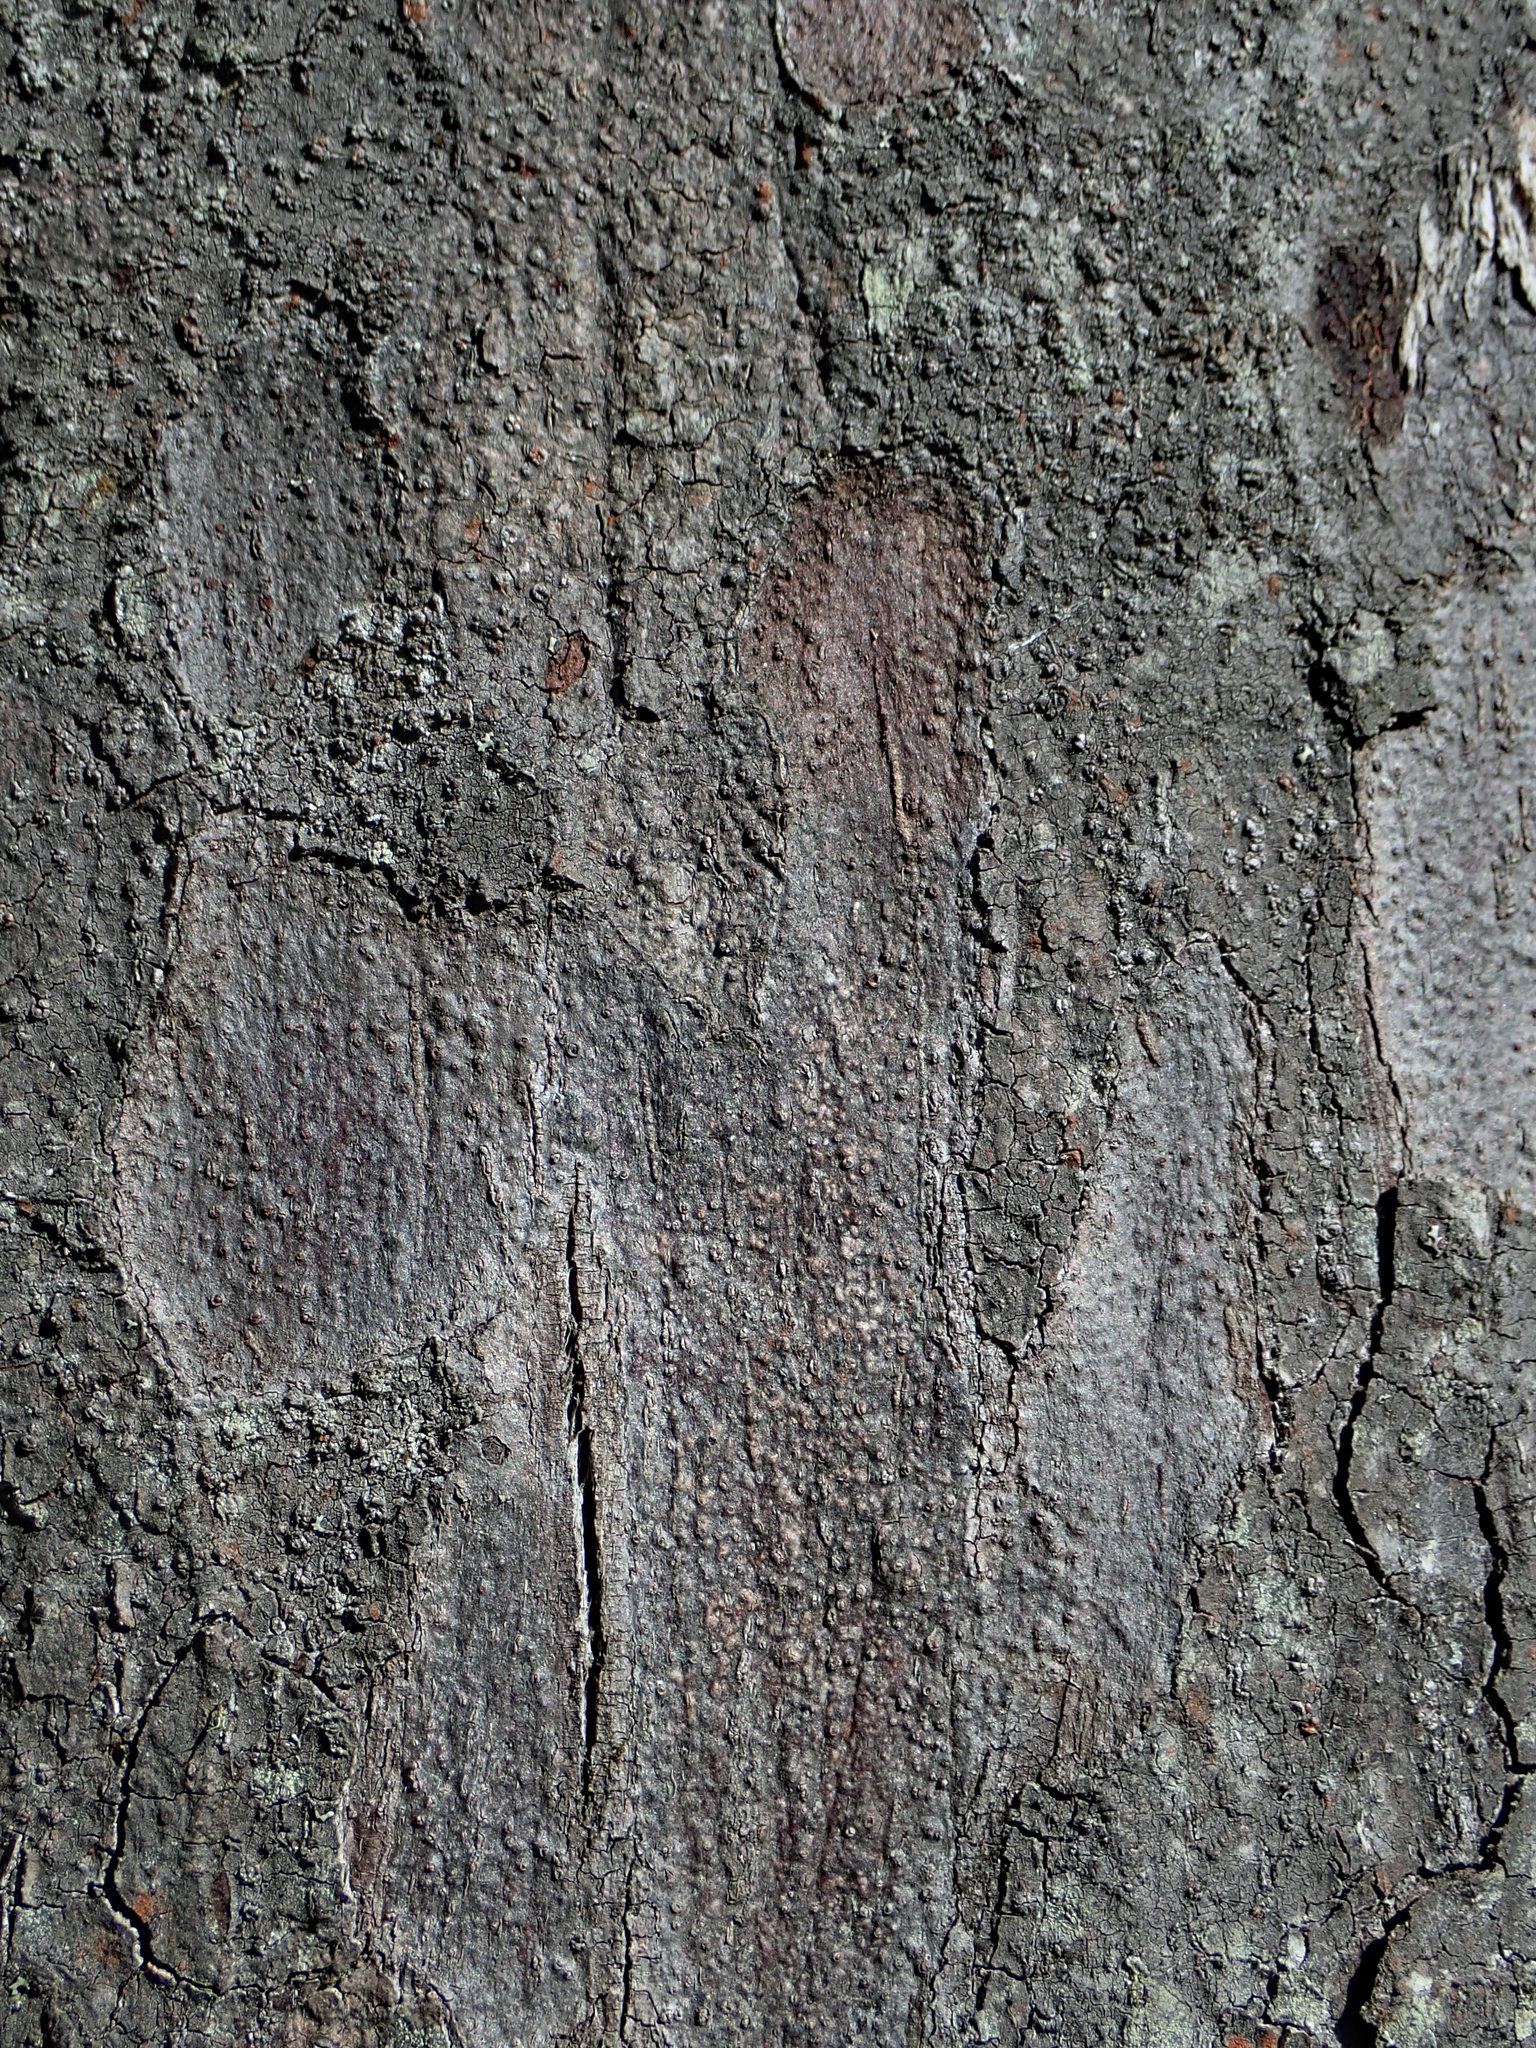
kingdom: Plantae
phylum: Tracheophyta
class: Pinopsida
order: Pinales
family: Podocarpaceae
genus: Dacrydium
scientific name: Dacrydium cupressinum
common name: Red pine
